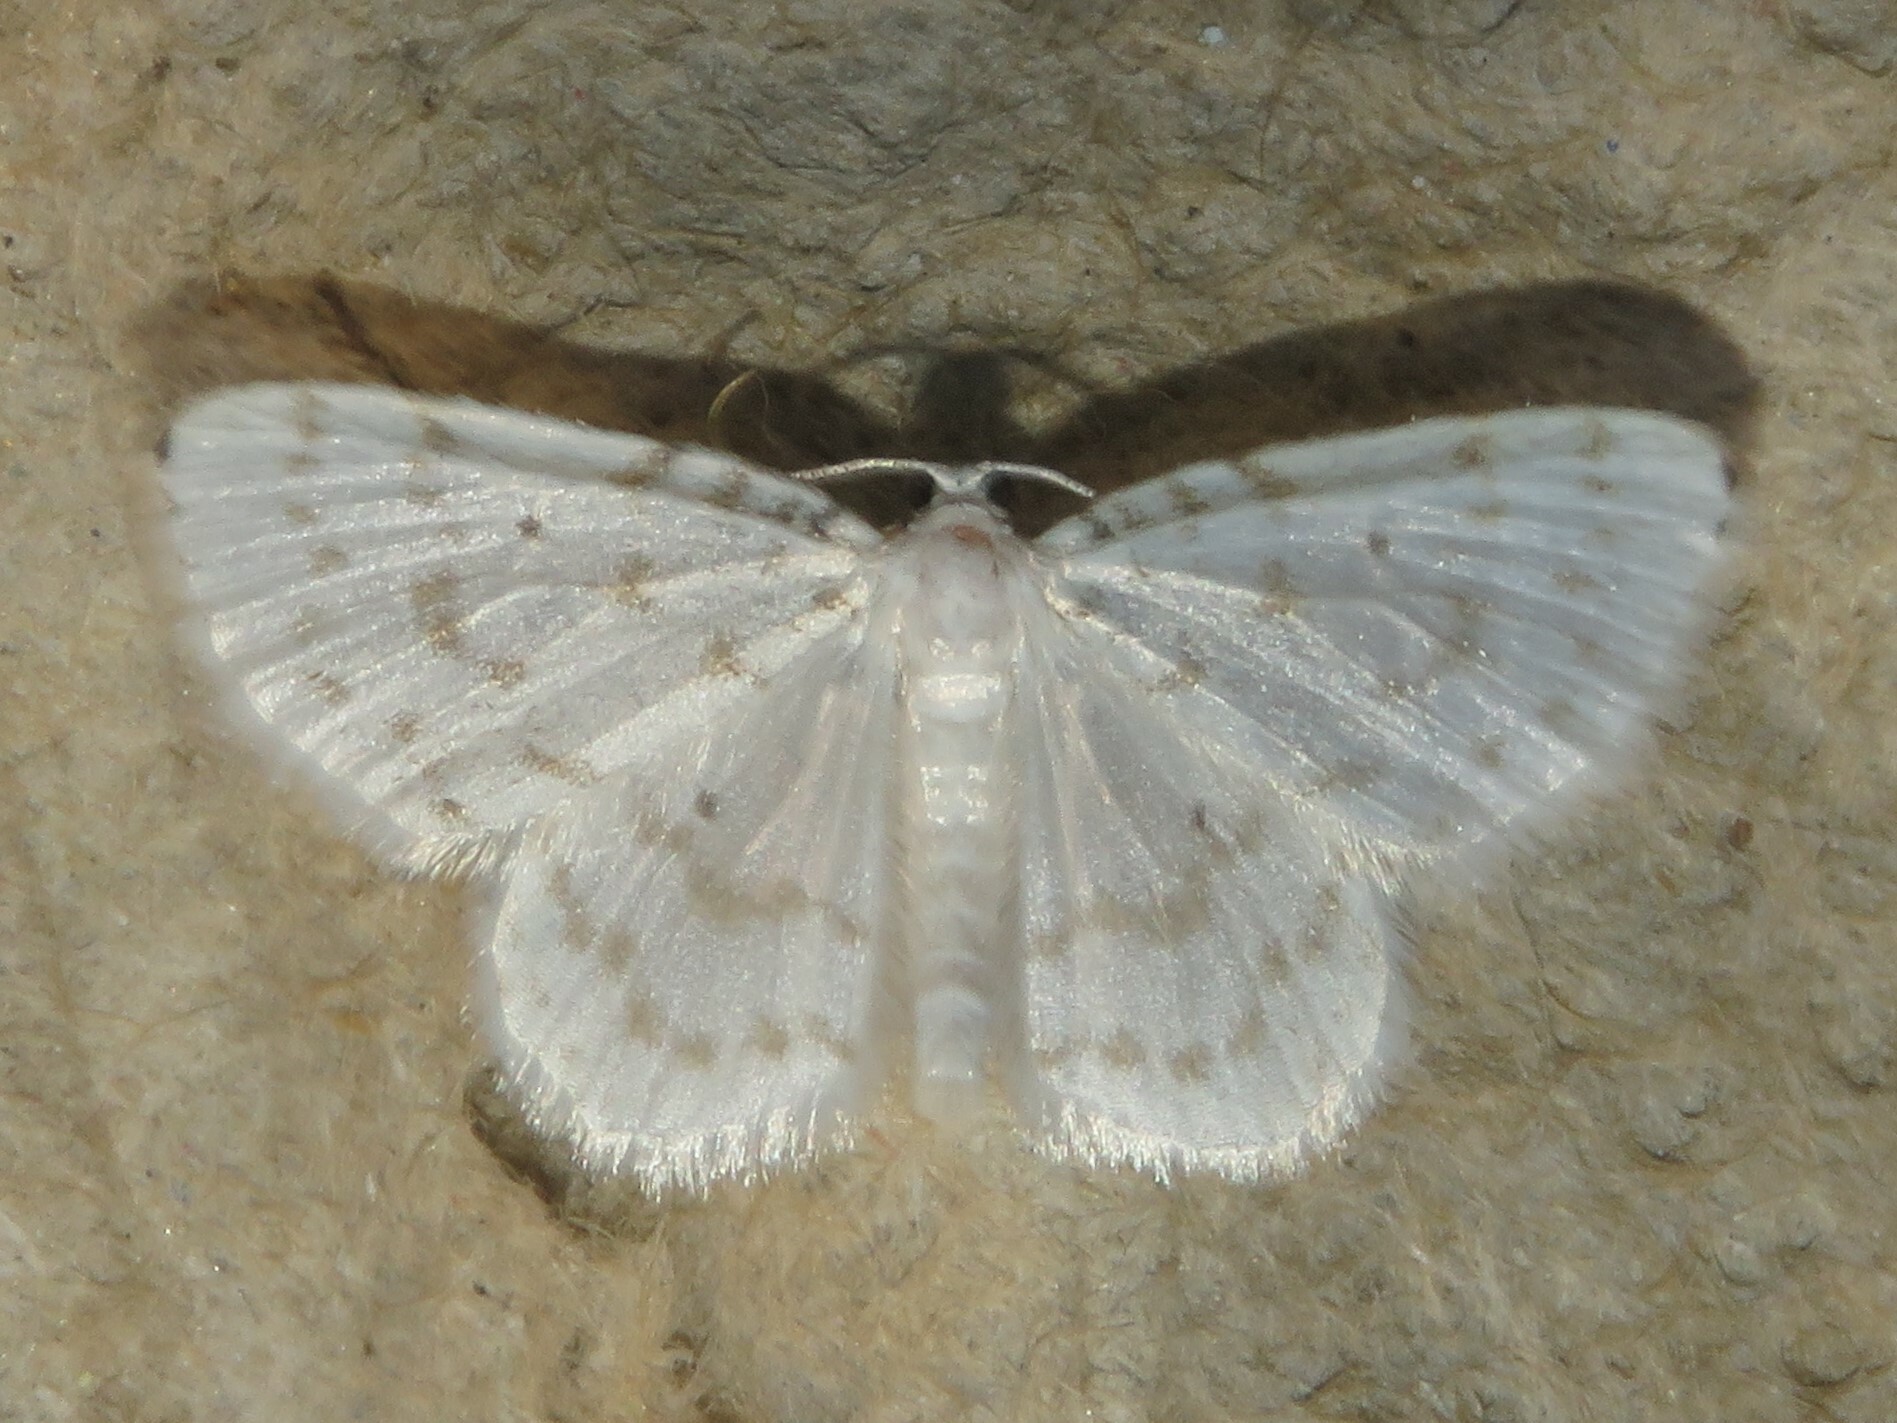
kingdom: Animalia
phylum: Arthropoda
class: Insecta
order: Lepidoptera
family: Geometridae
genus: Hydrelia
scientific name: Hydrelia albifera
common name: Fragile white carpet
